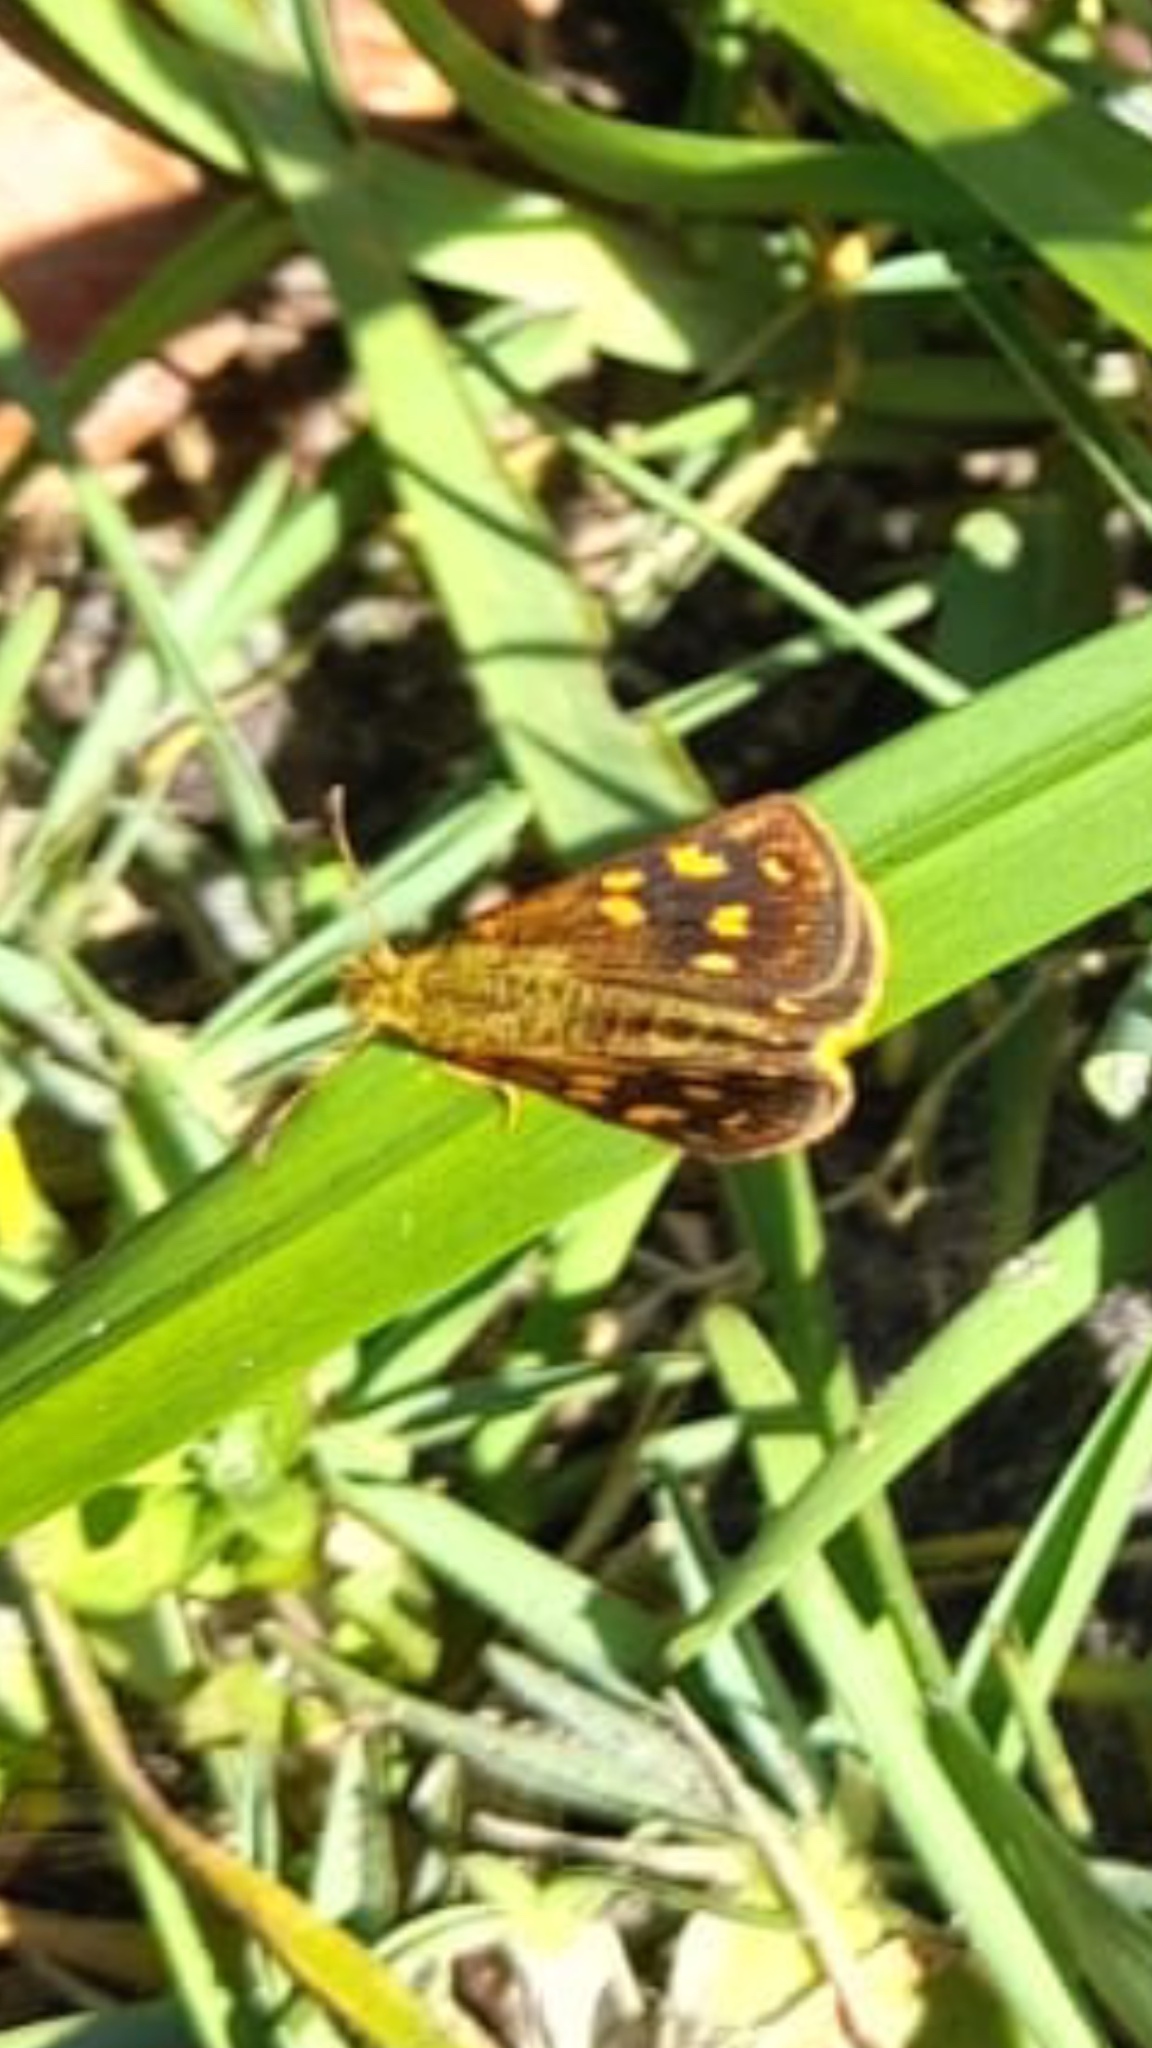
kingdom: Animalia
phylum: Arthropoda
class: Insecta
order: Lepidoptera
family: Hesperiidae
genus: Metisella
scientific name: Metisella malgacha
